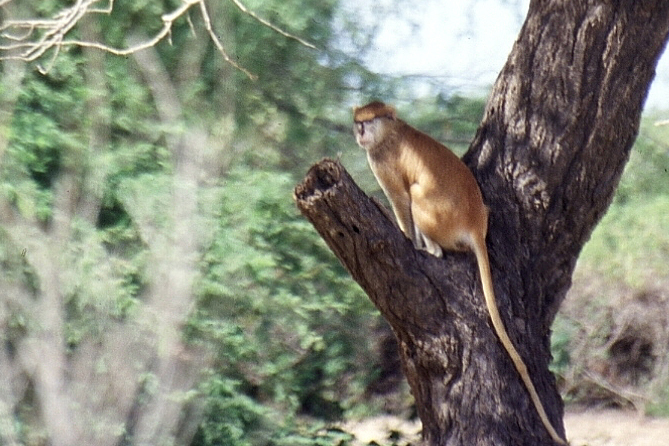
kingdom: Animalia
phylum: Chordata
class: Mammalia
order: Primates
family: Cercopithecidae
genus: Erythrocebus
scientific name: Erythrocebus patas
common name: Patas monkey
